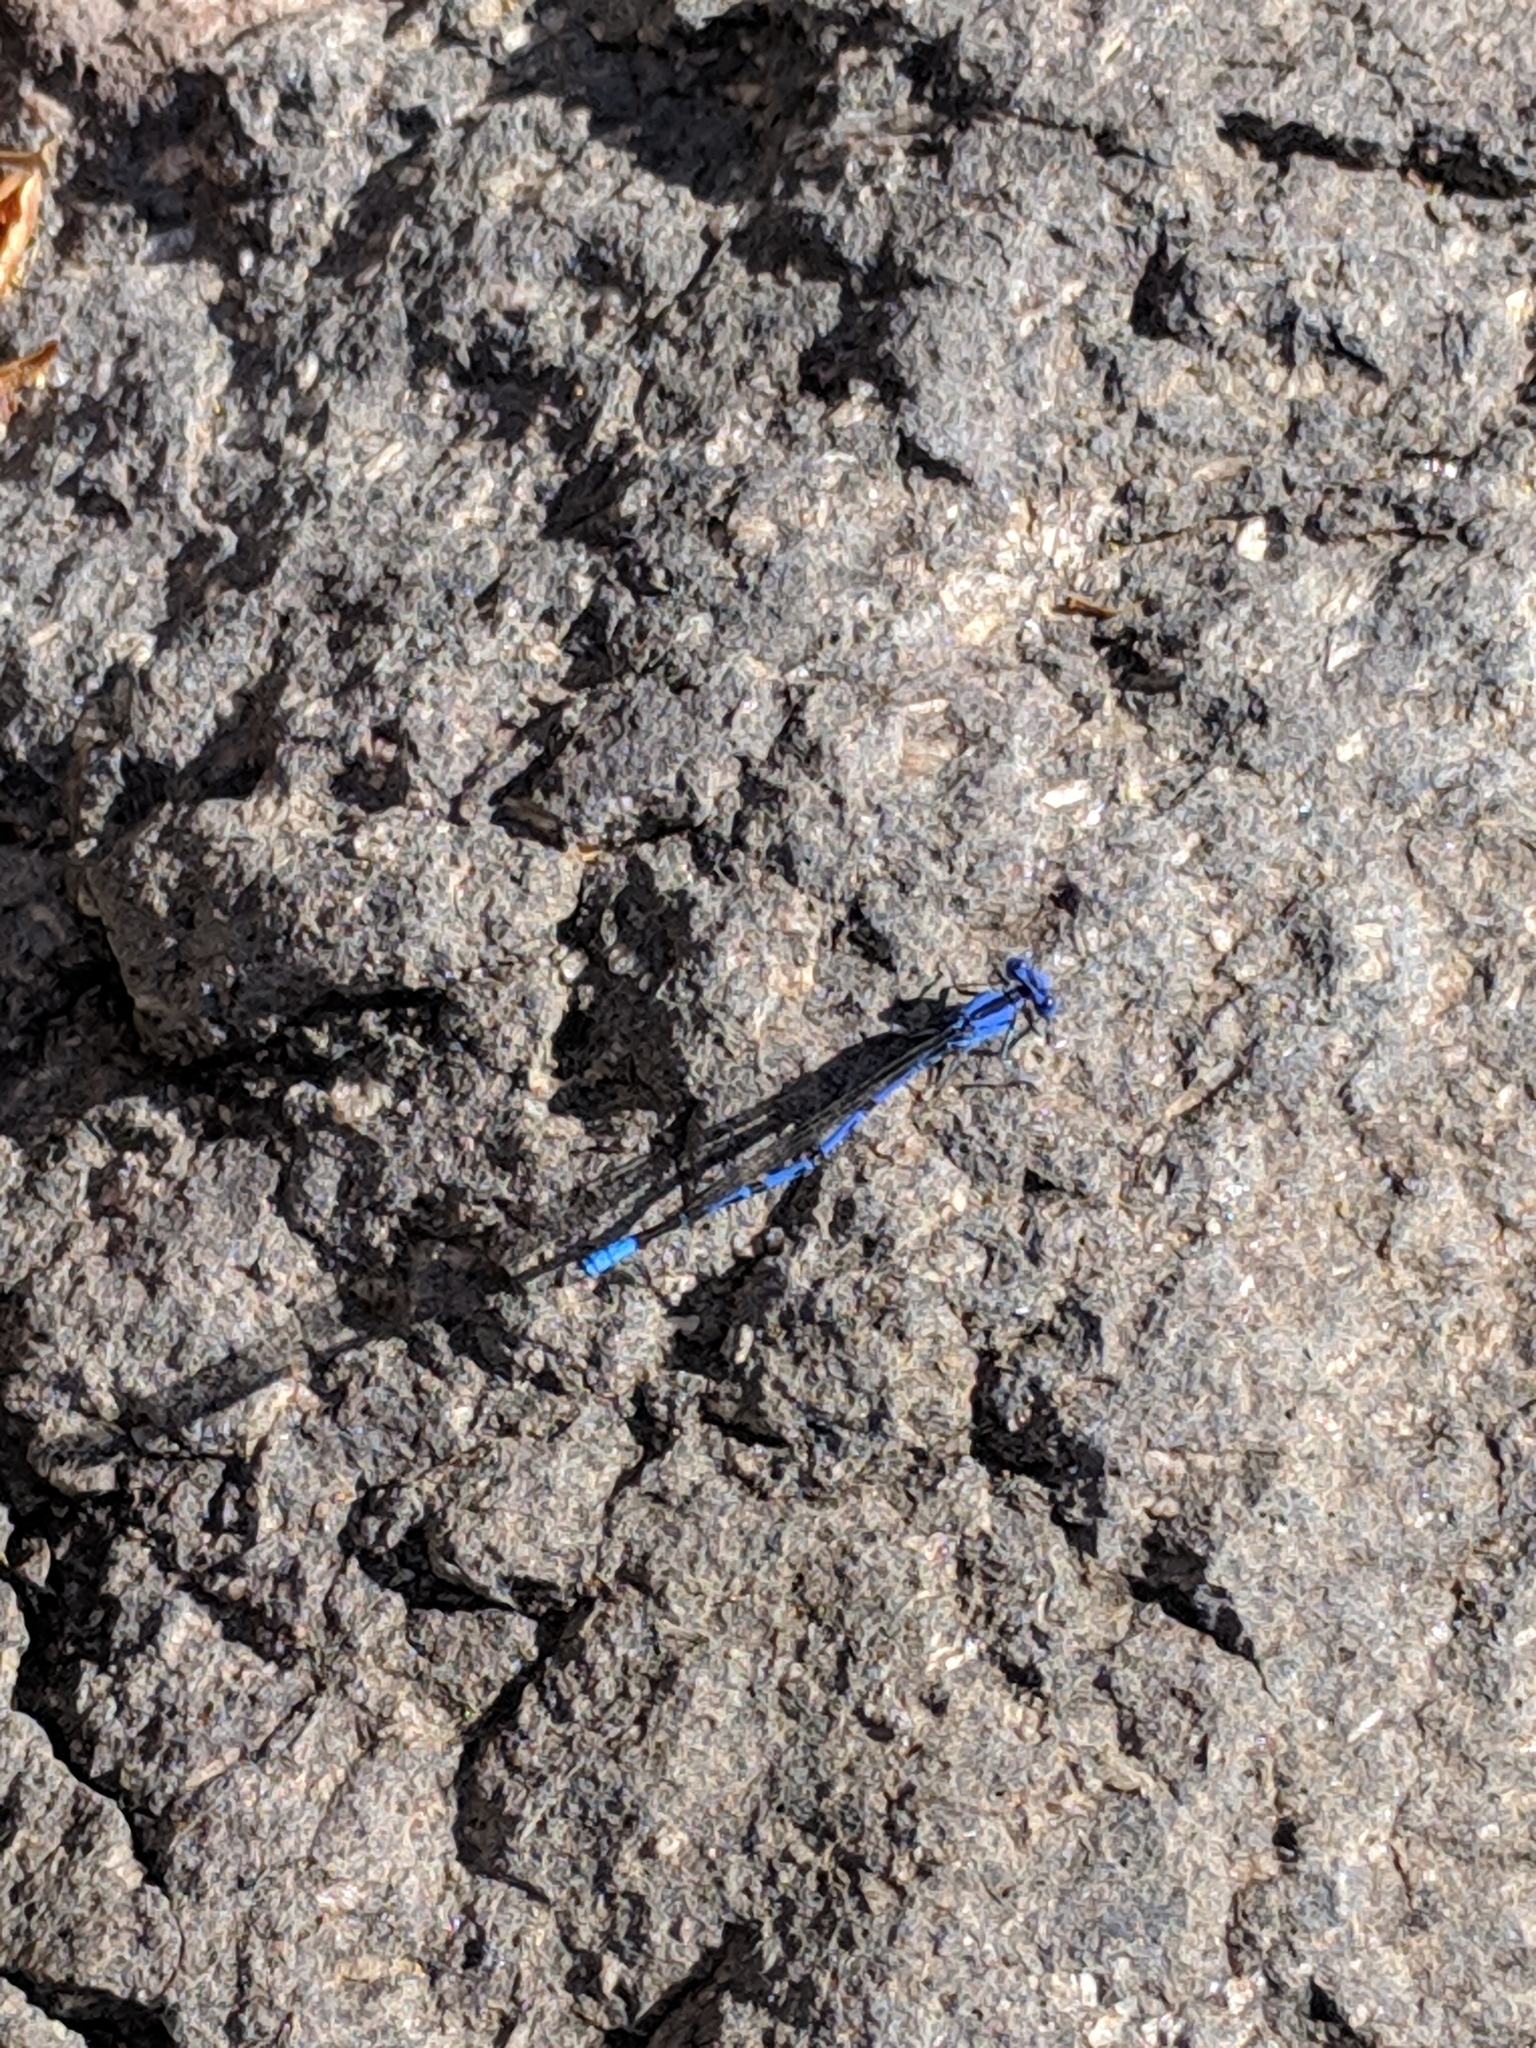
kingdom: Animalia
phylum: Arthropoda
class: Insecta
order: Odonata
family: Coenagrionidae
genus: Argia
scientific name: Argia funebris
